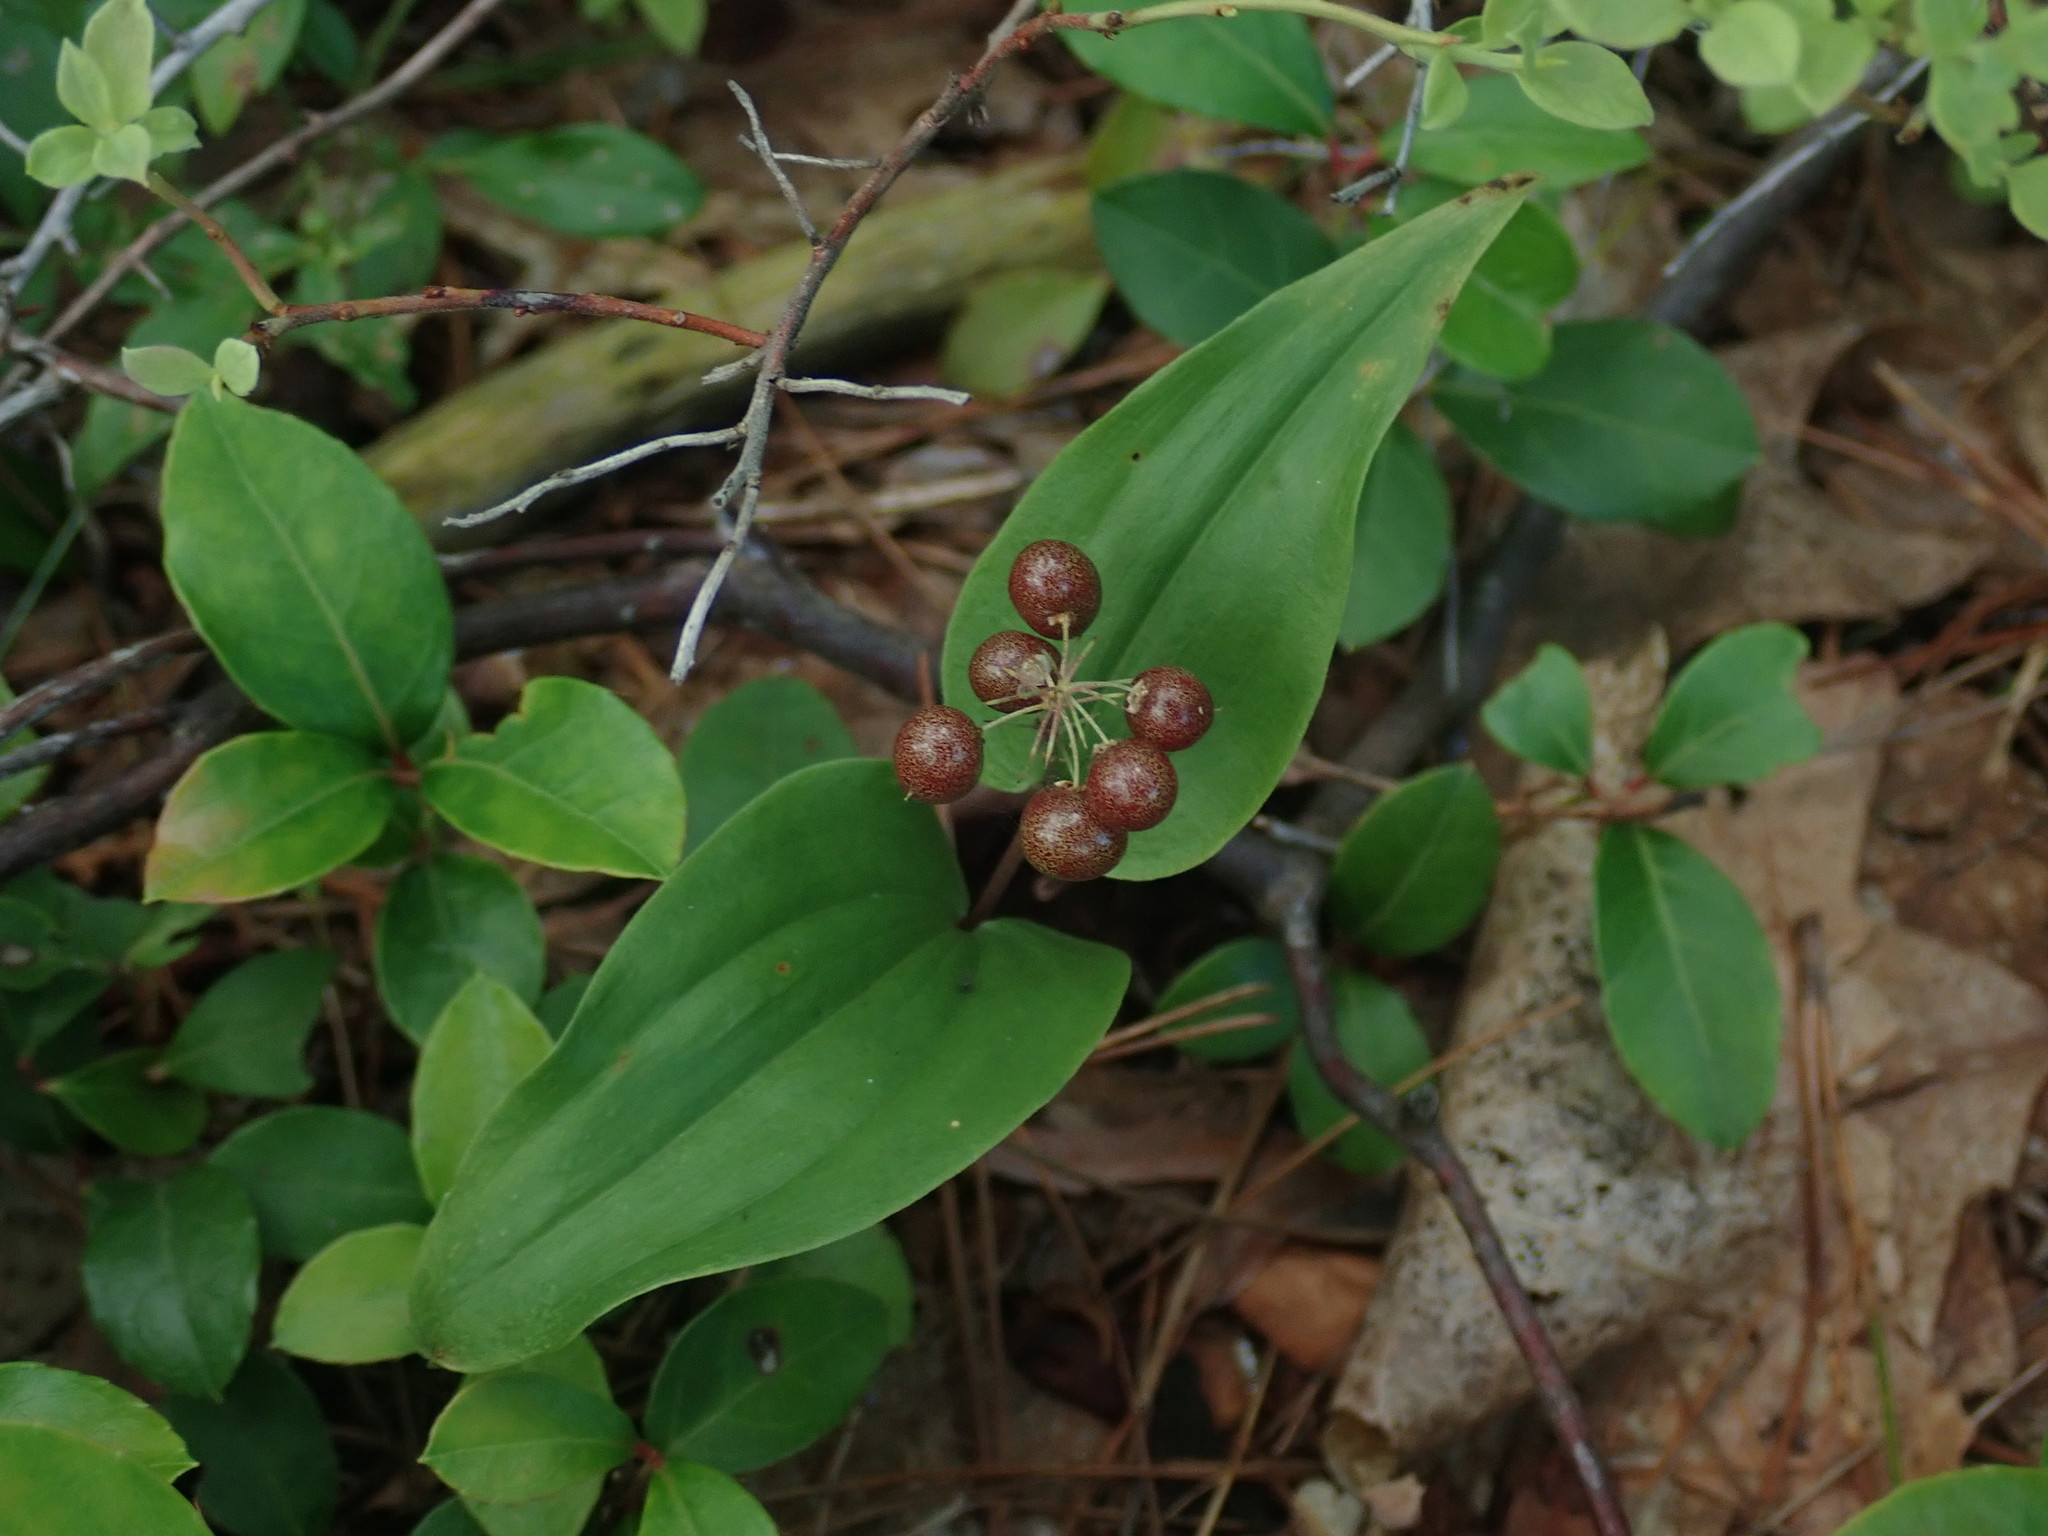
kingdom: Plantae
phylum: Tracheophyta
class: Liliopsida
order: Asparagales
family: Asparagaceae
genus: Maianthemum
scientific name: Maianthemum canadense
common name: False lily-of-the-valley
